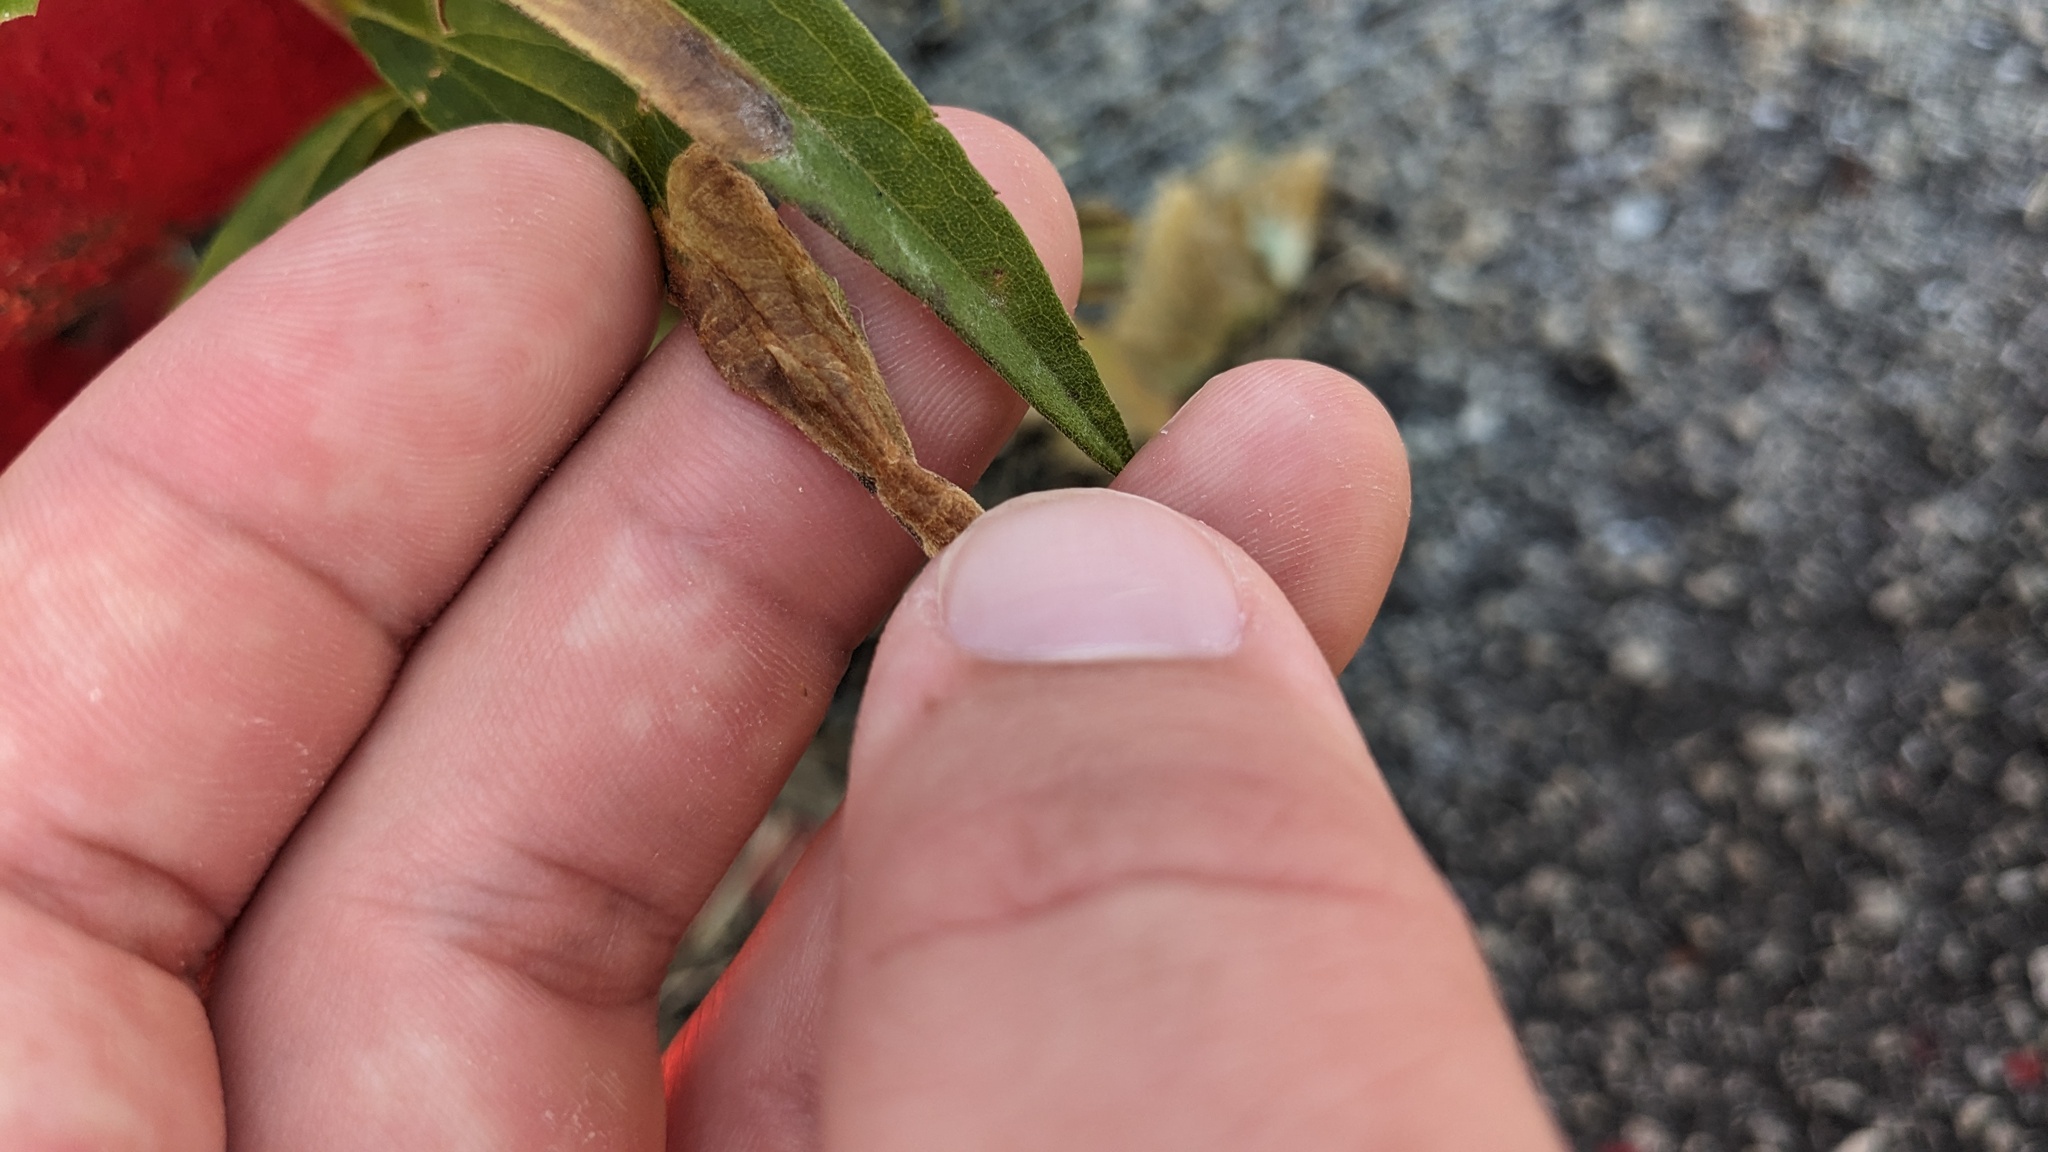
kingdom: Animalia
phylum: Arthropoda
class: Insecta
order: Diptera
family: Agromyzidae
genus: Nemorimyza
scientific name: Nemorimyza posticata
